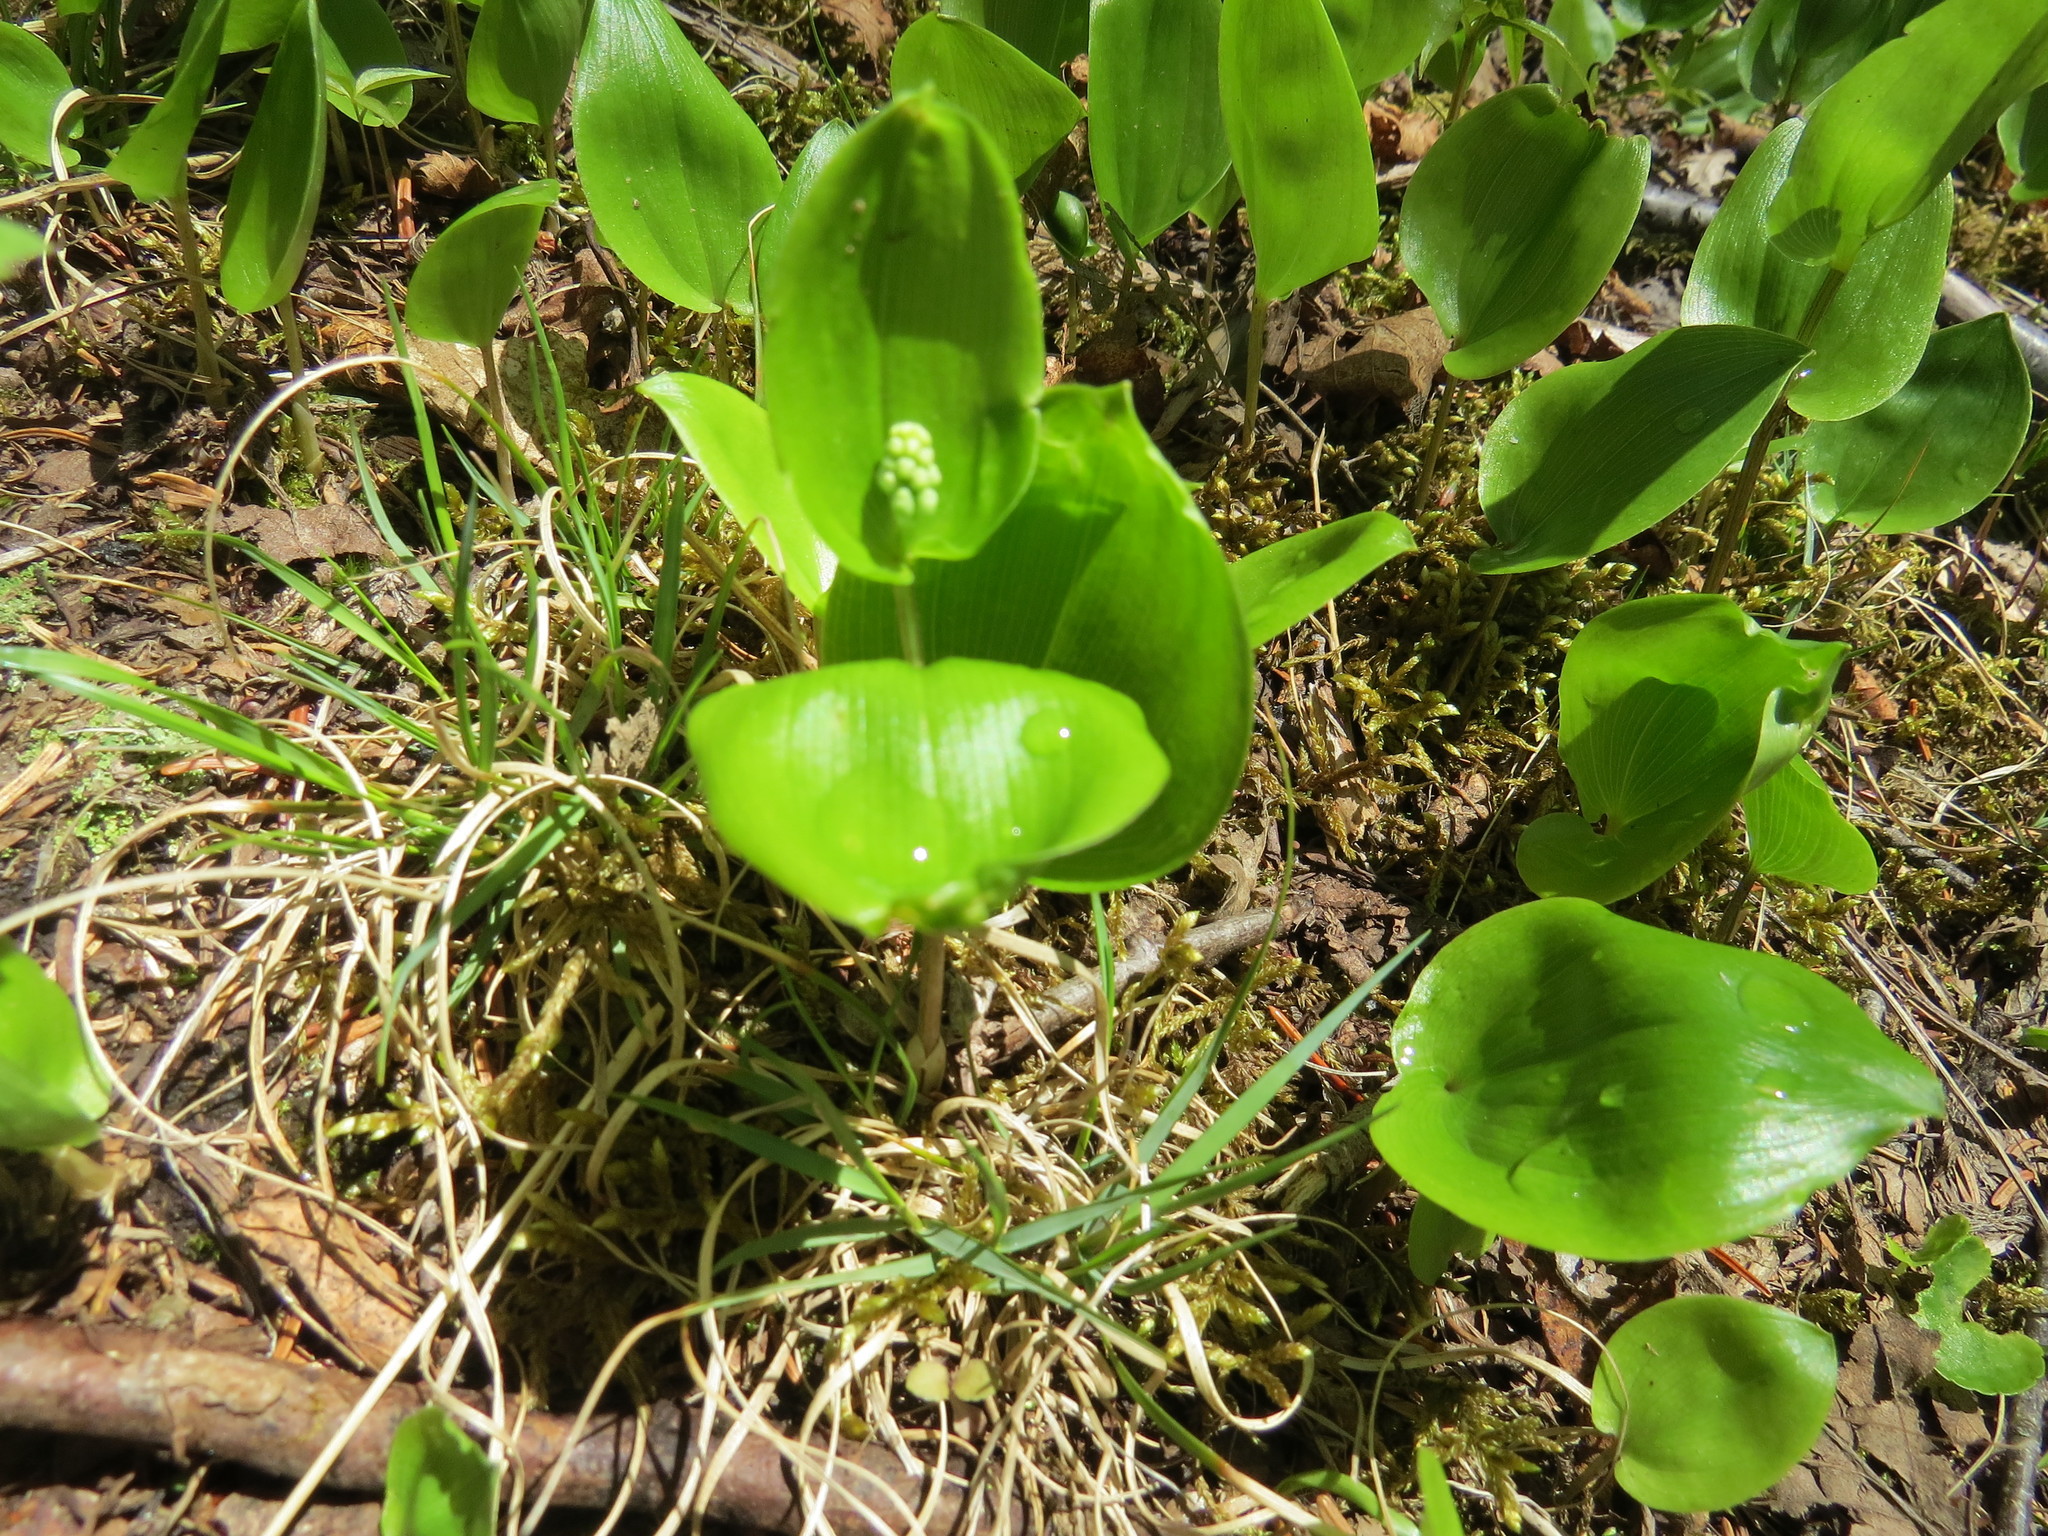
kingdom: Plantae
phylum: Tracheophyta
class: Liliopsida
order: Asparagales
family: Asparagaceae
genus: Maianthemum
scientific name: Maianthemum canadense
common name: False lily-of-the-valley
